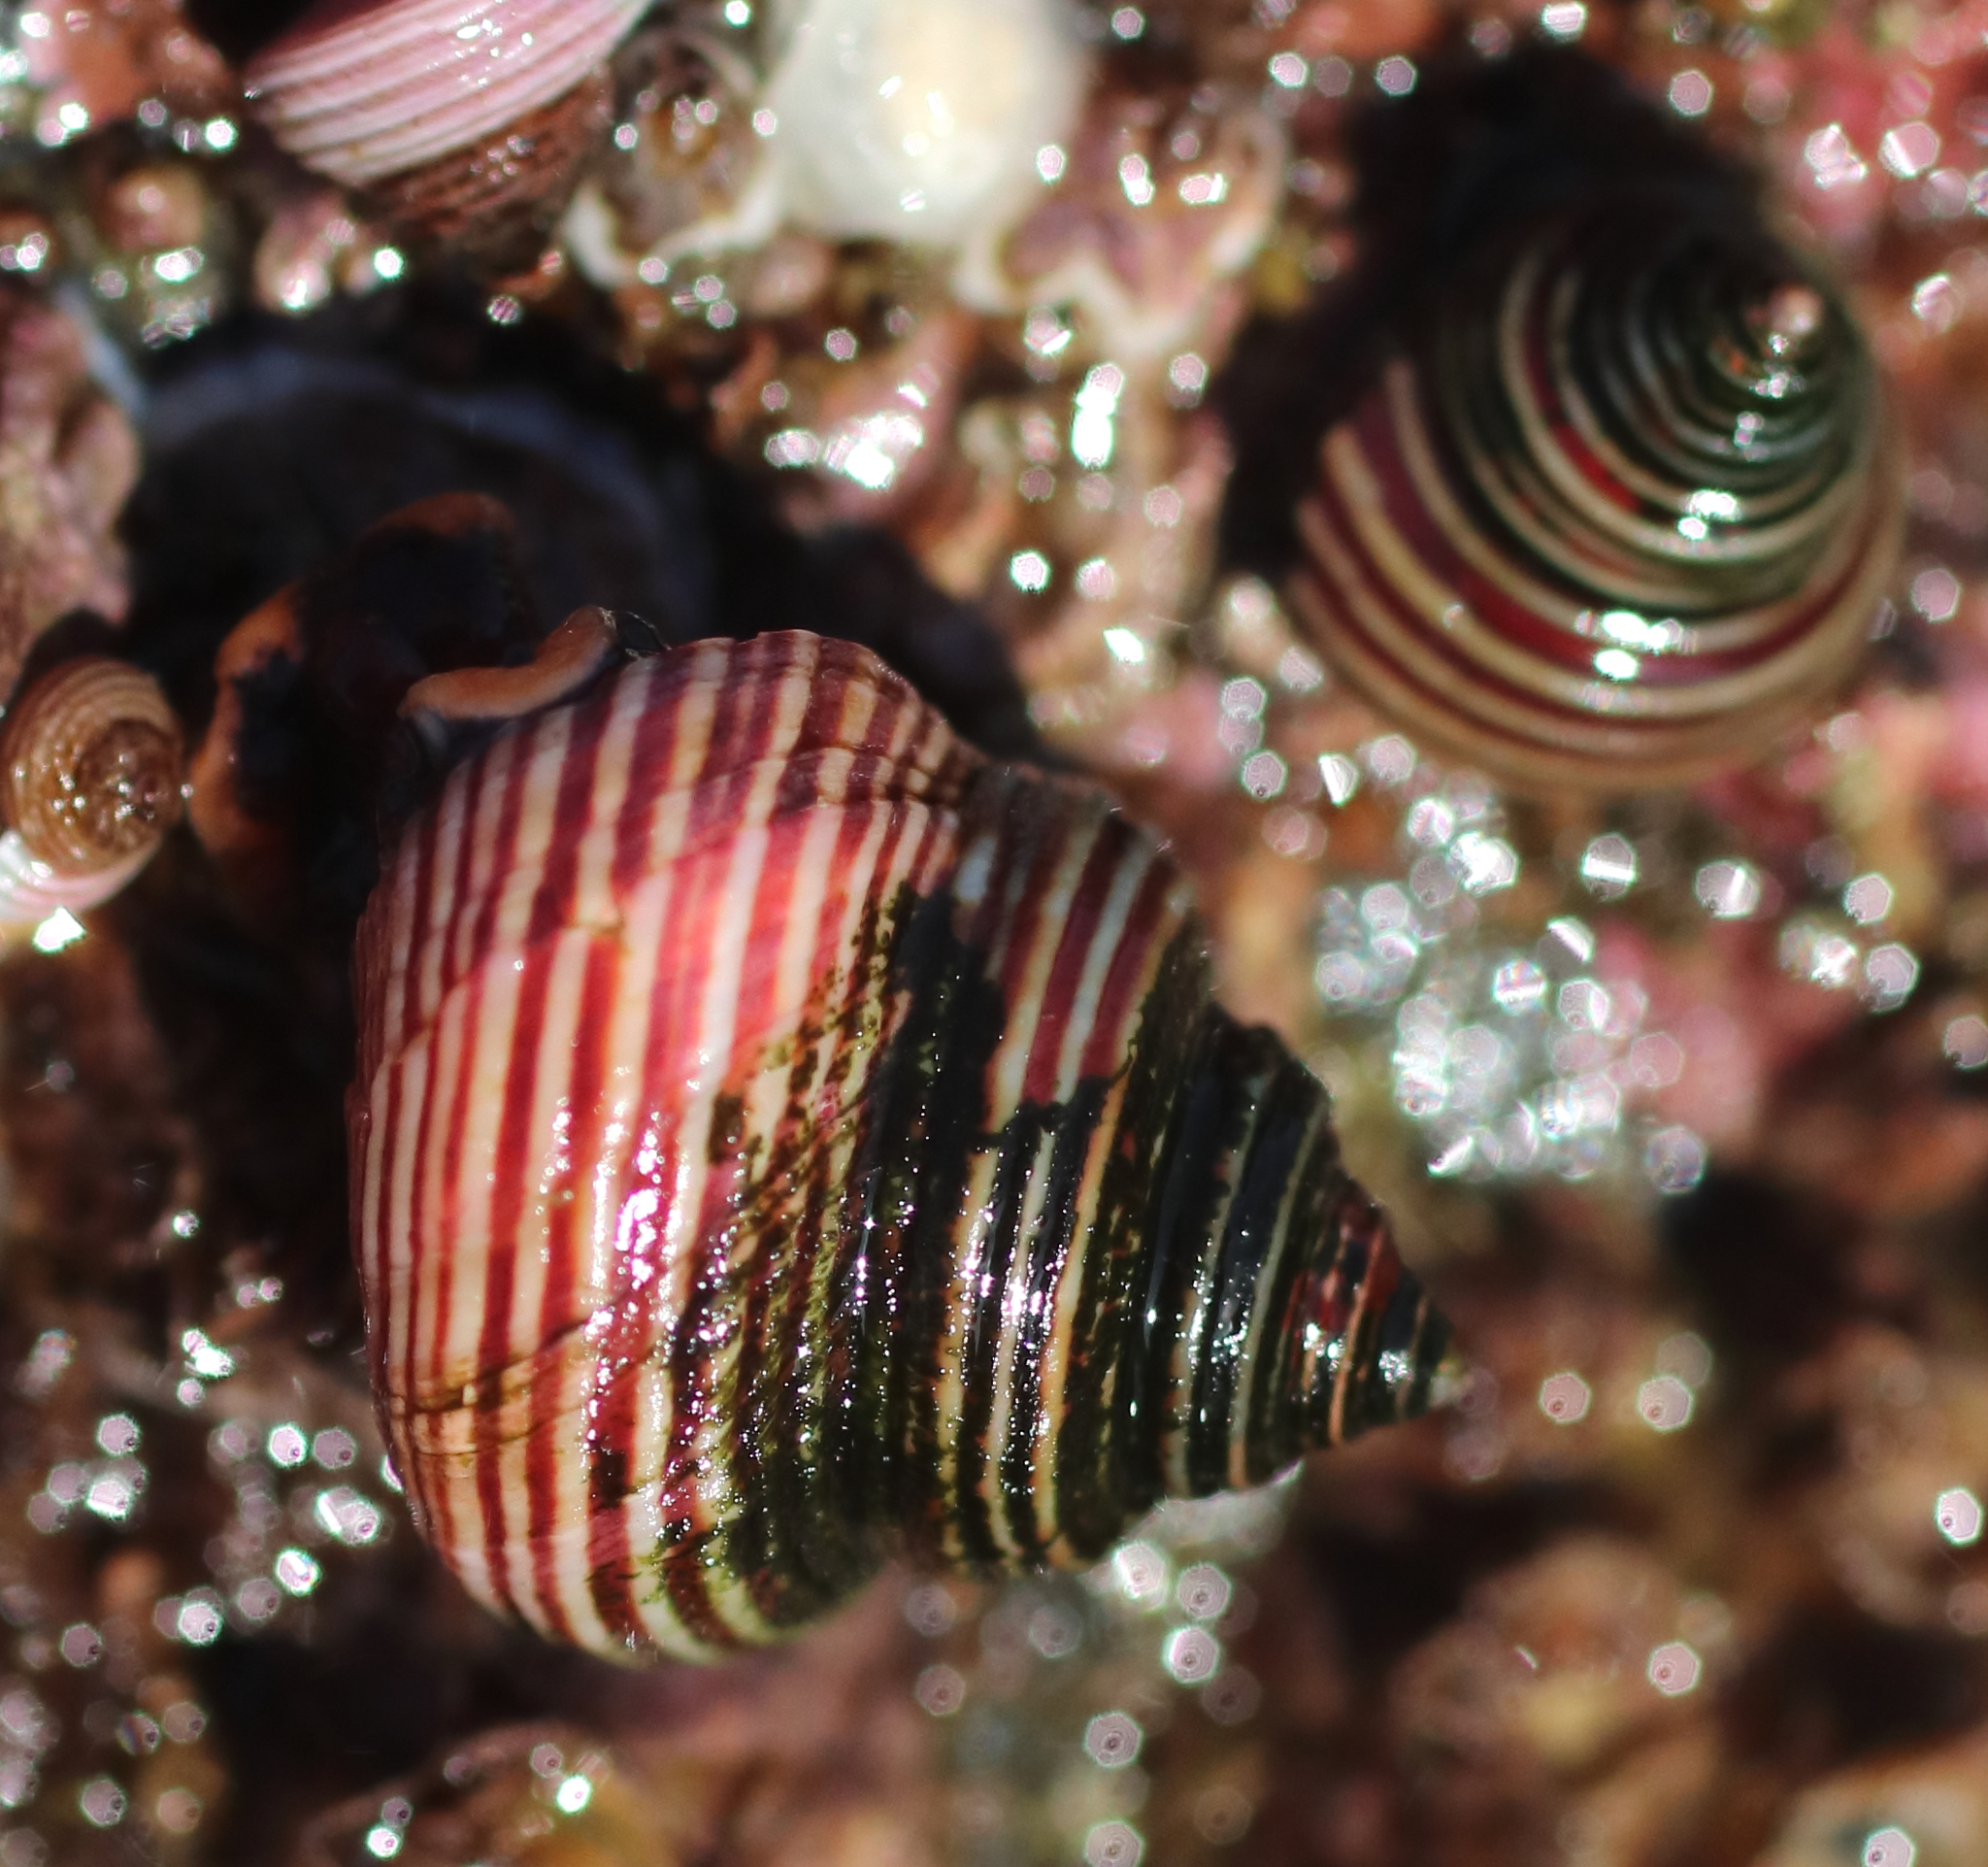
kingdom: Animalia
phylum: Mollusca
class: Gastropoda
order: Trochida
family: Calliostomatidae
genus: Calliostoma
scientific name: Calliostoma ligatum
